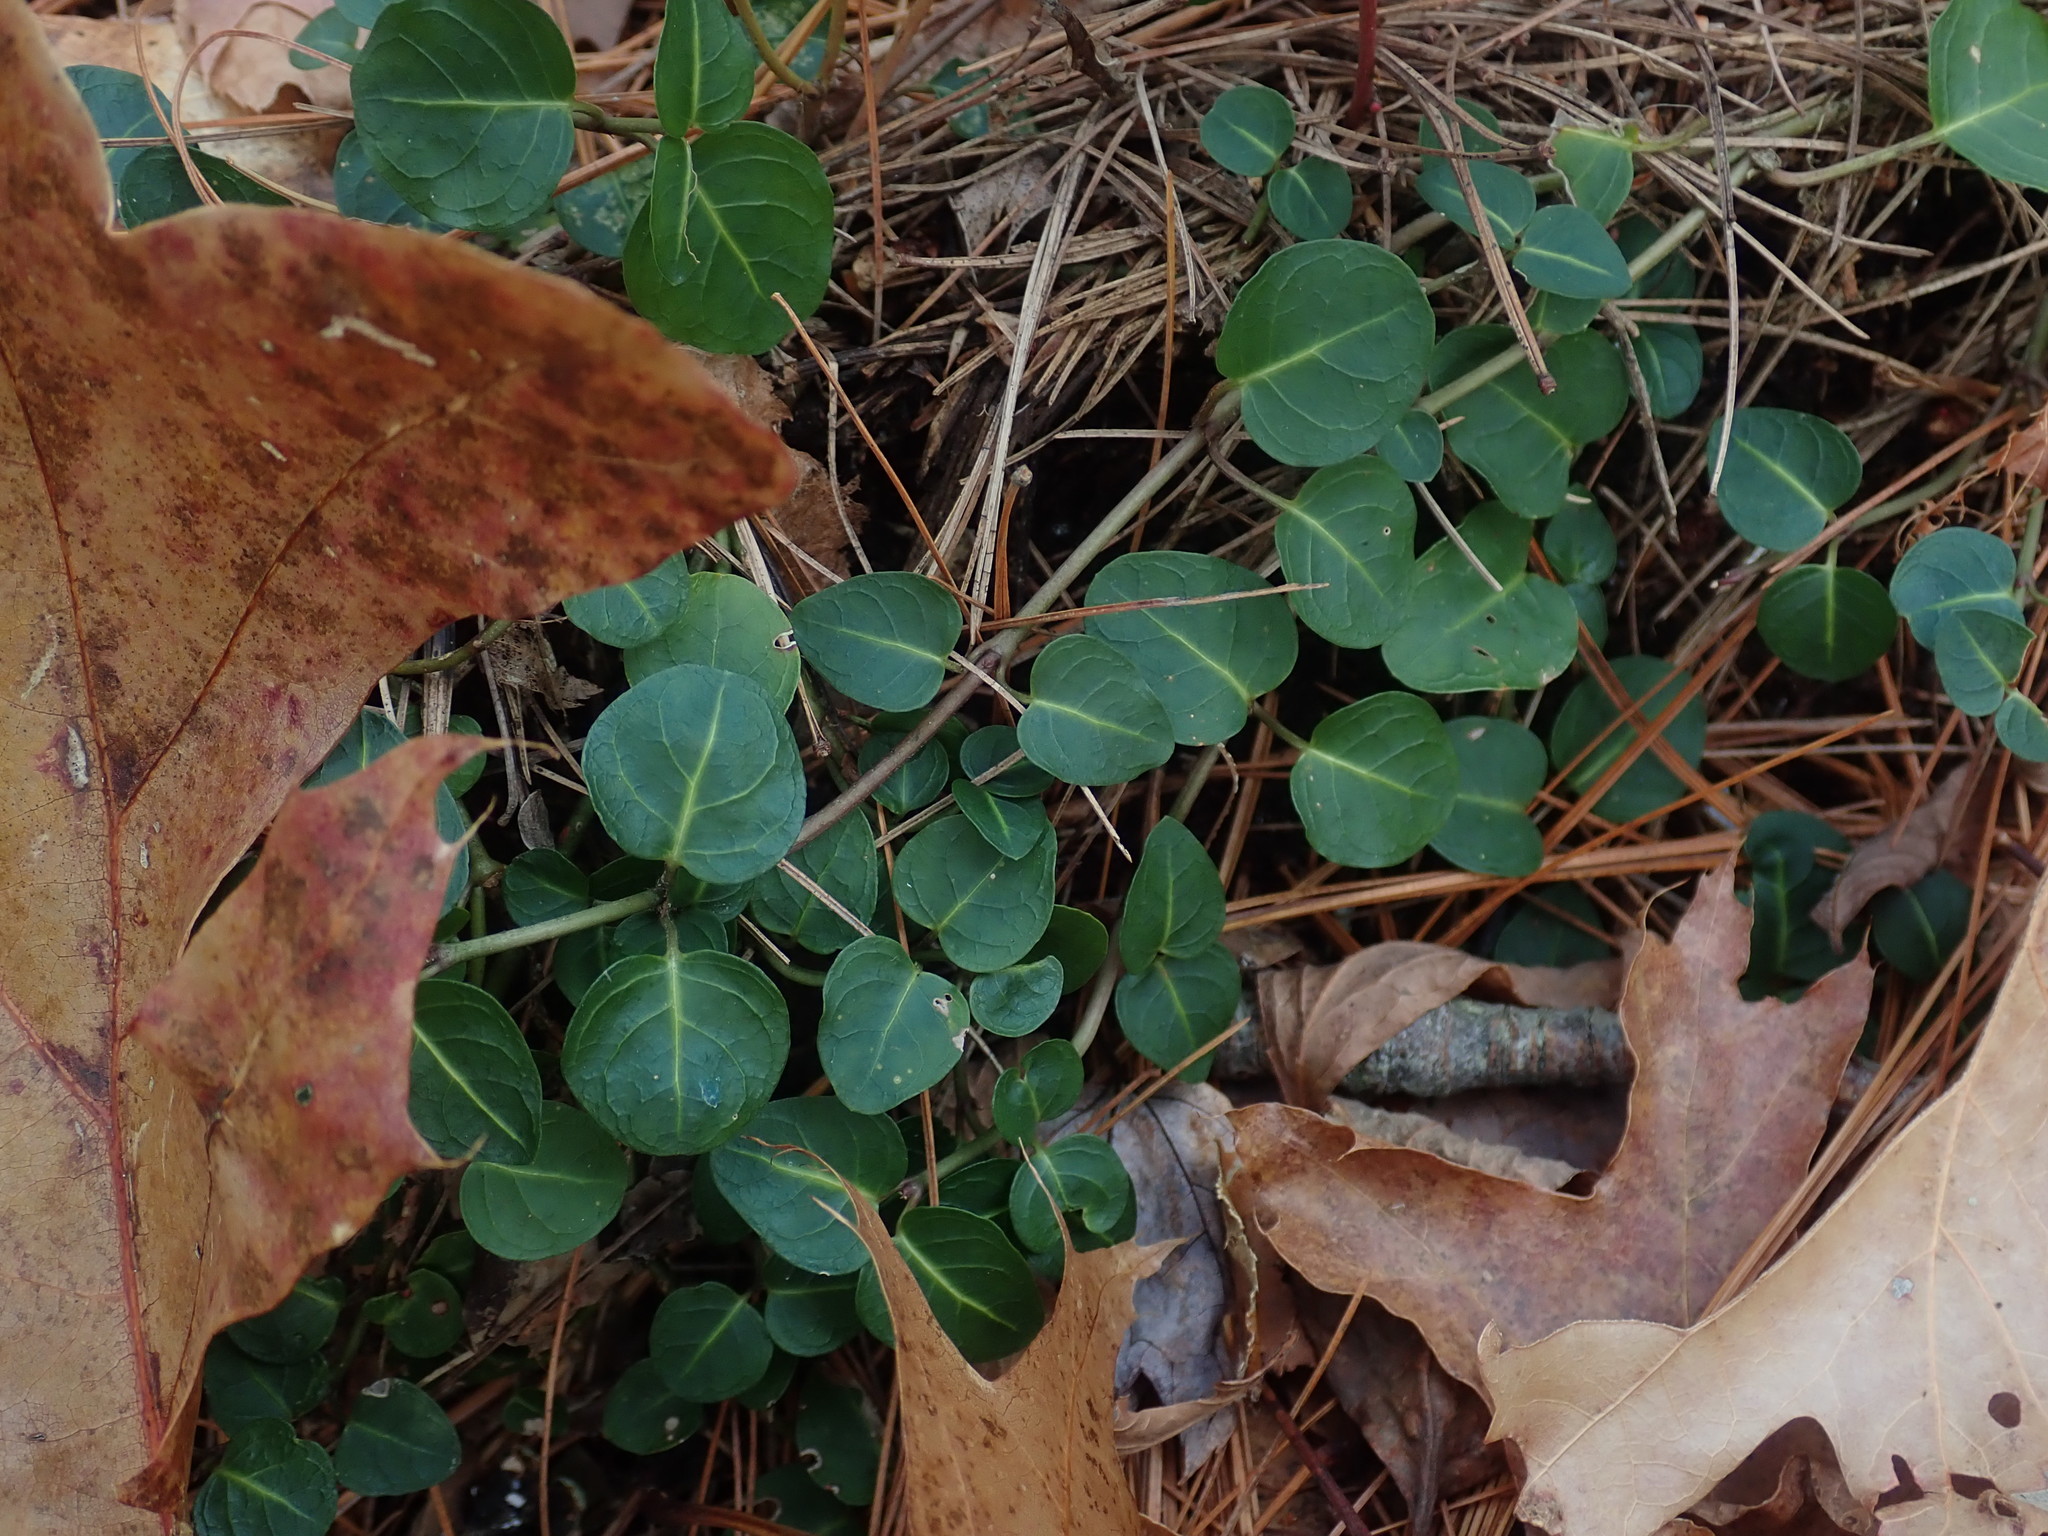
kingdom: Plantae
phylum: Tracheophyta
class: Magnoliopsida
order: Gentianales
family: Rubiaceae
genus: Mitchella
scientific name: Mitchella repens
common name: Partridge-berry
